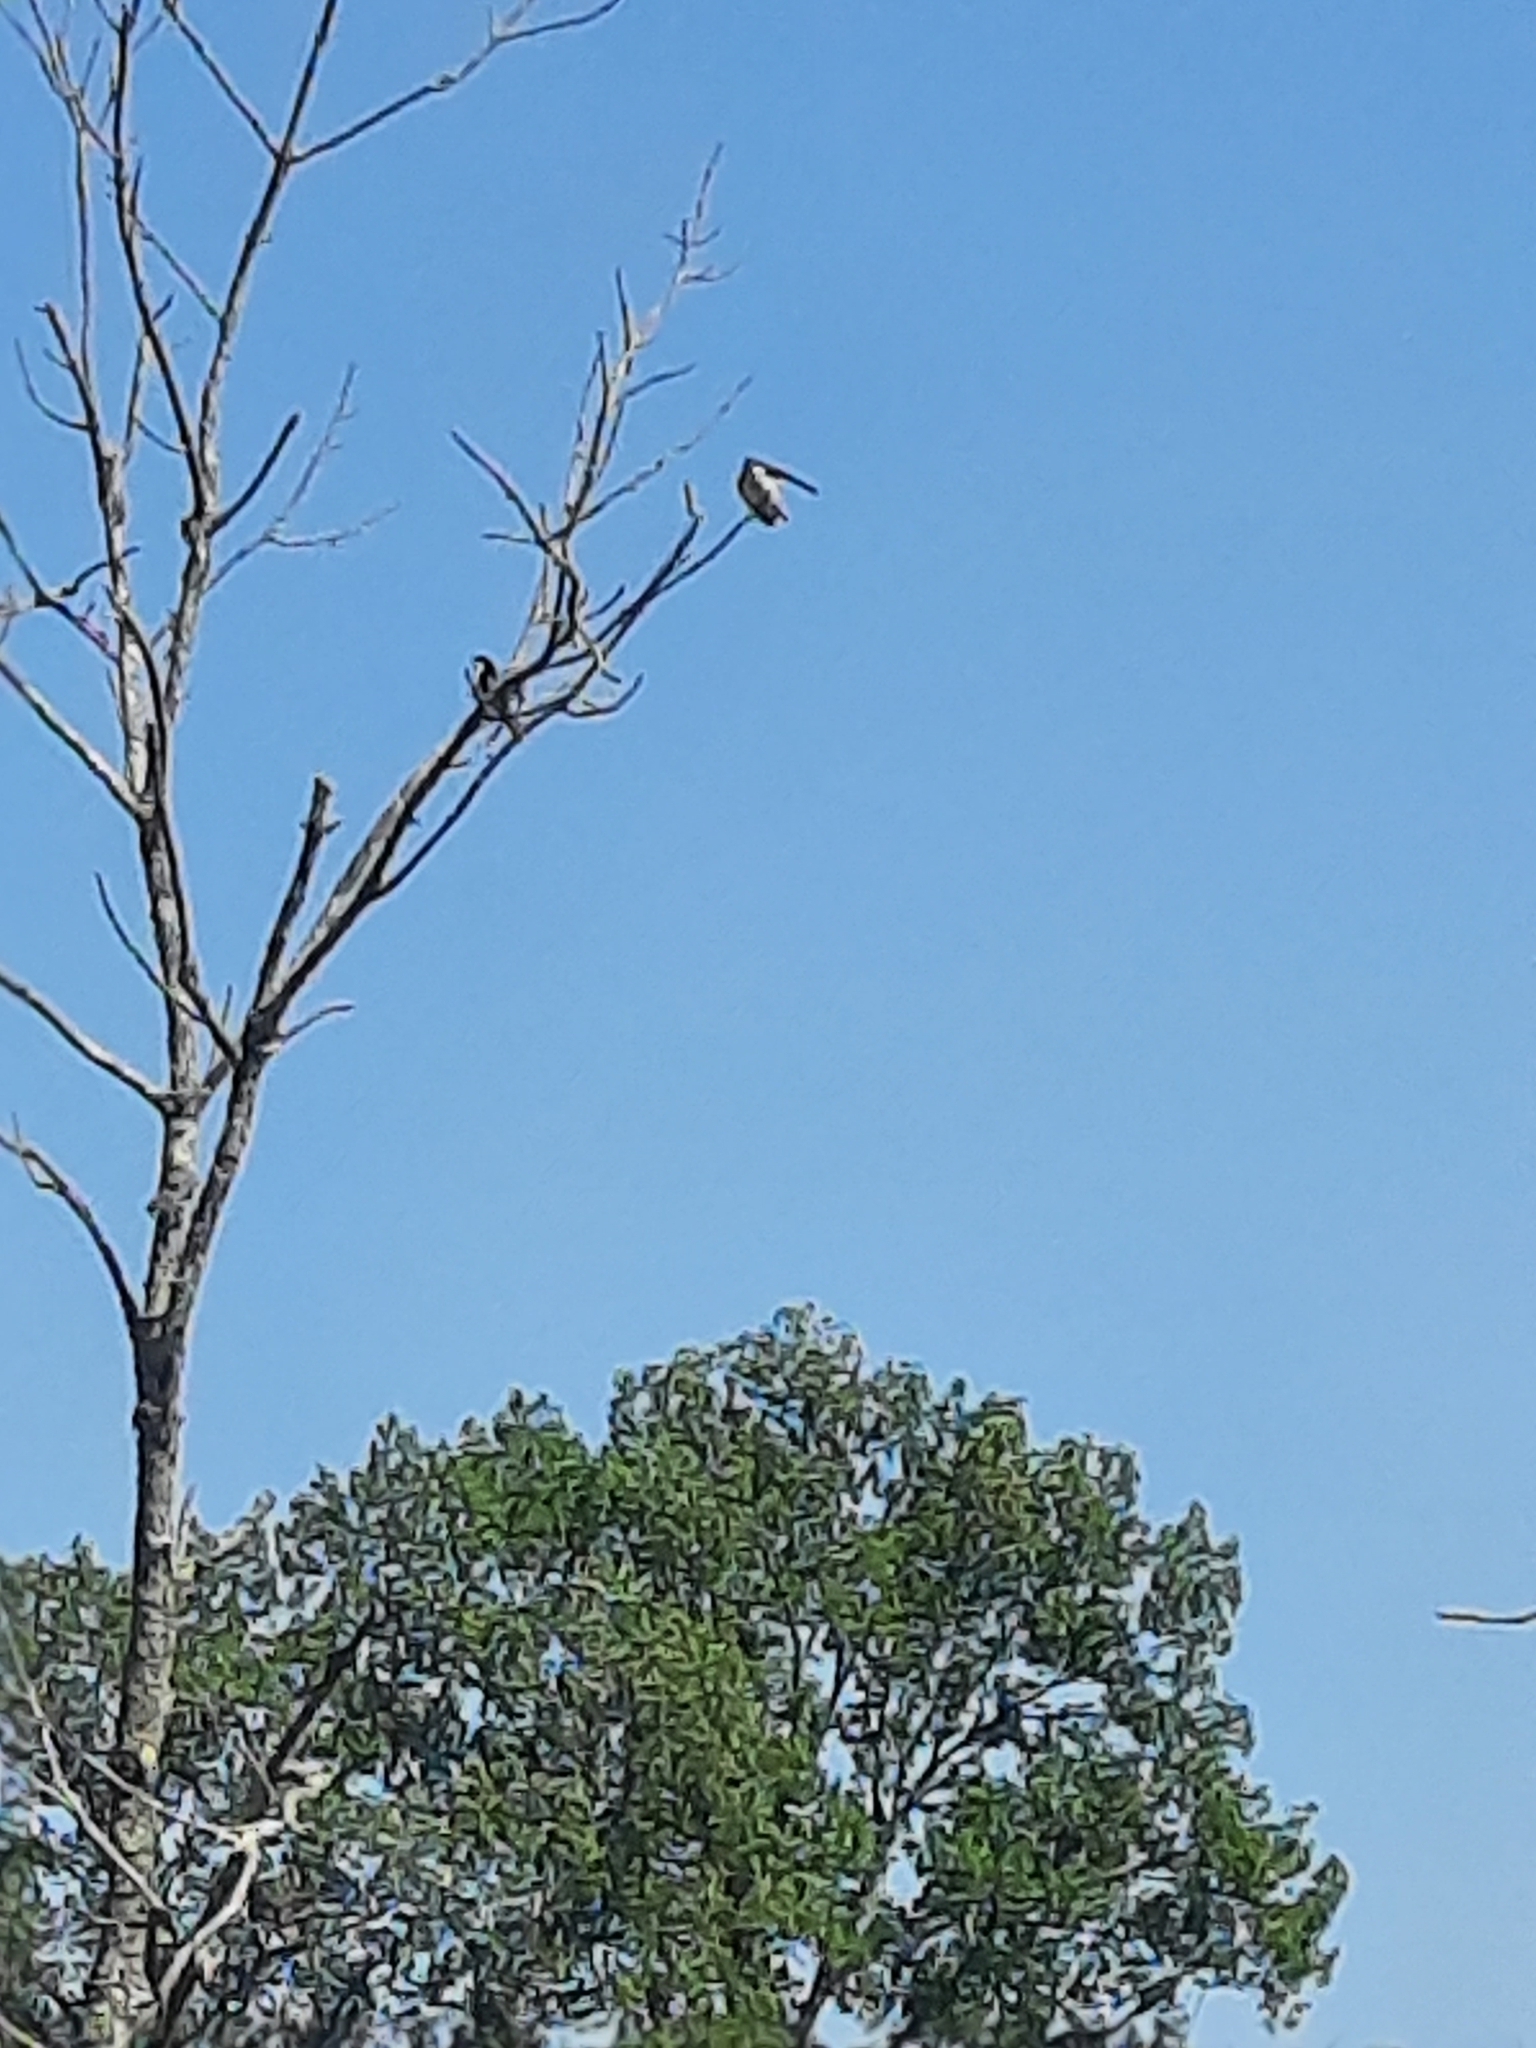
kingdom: Animalia
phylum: Chordata
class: Aves
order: Passeriformes
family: Hirundinidae
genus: Tachycineta
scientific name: Tachycineta bicolor
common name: Tree swallow
